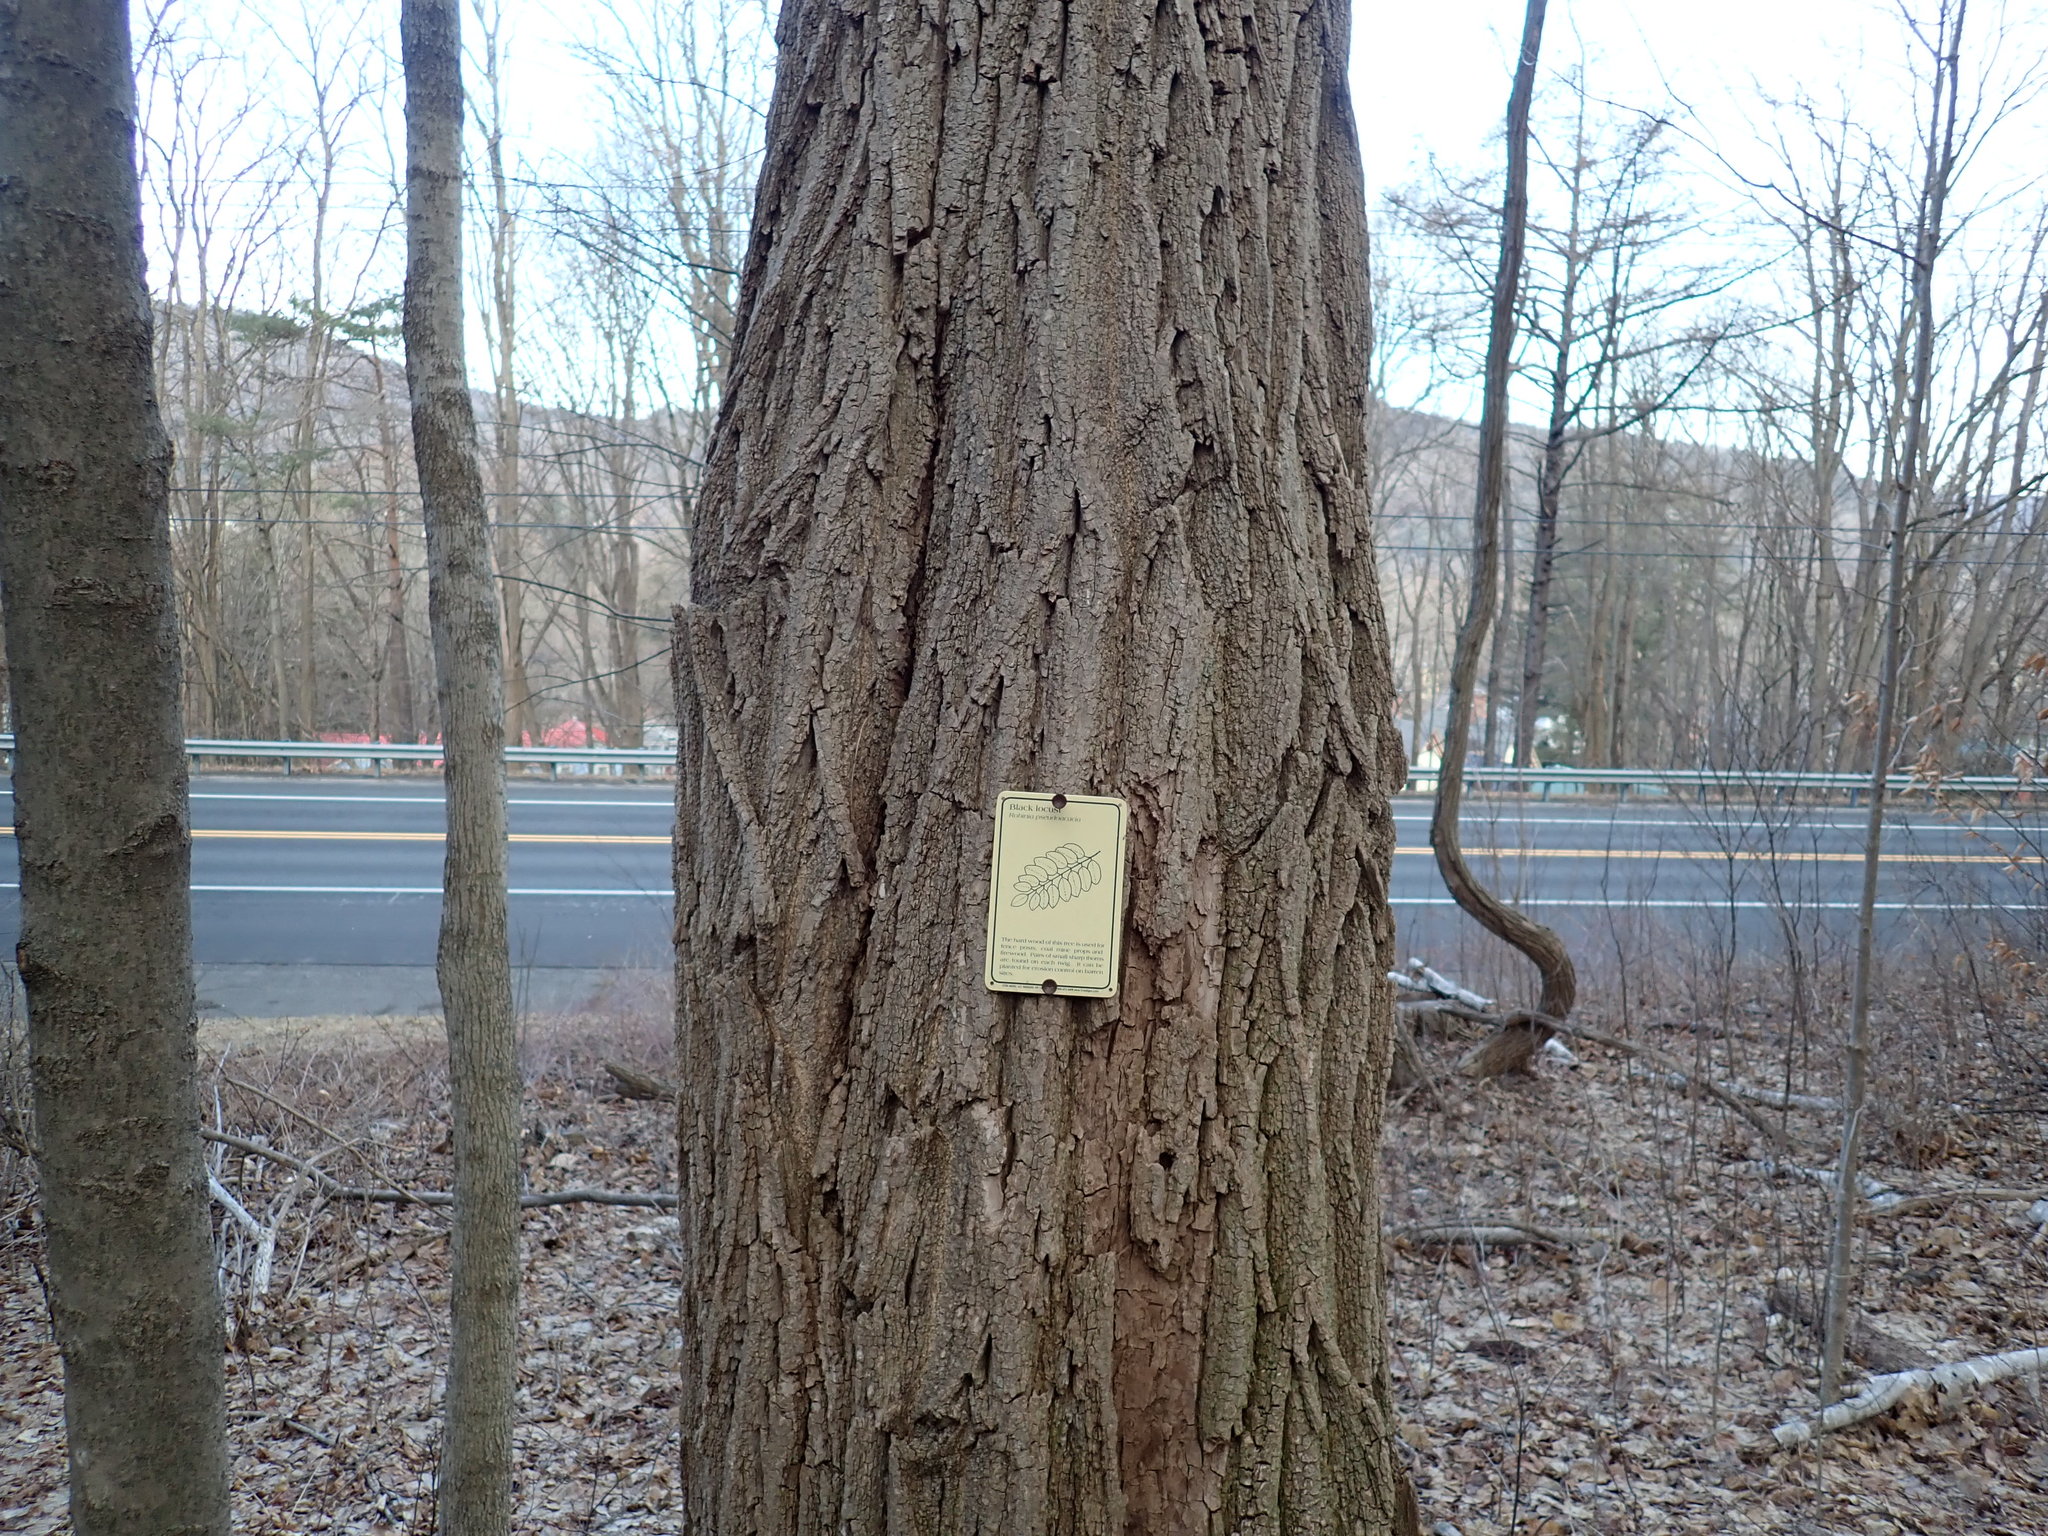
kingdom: Plantae
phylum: Tracheophyta
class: Magnoliopsida
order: Fabales
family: Fabaceae
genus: Robinia
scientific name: Robinia pseudoacacia
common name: Black locust
